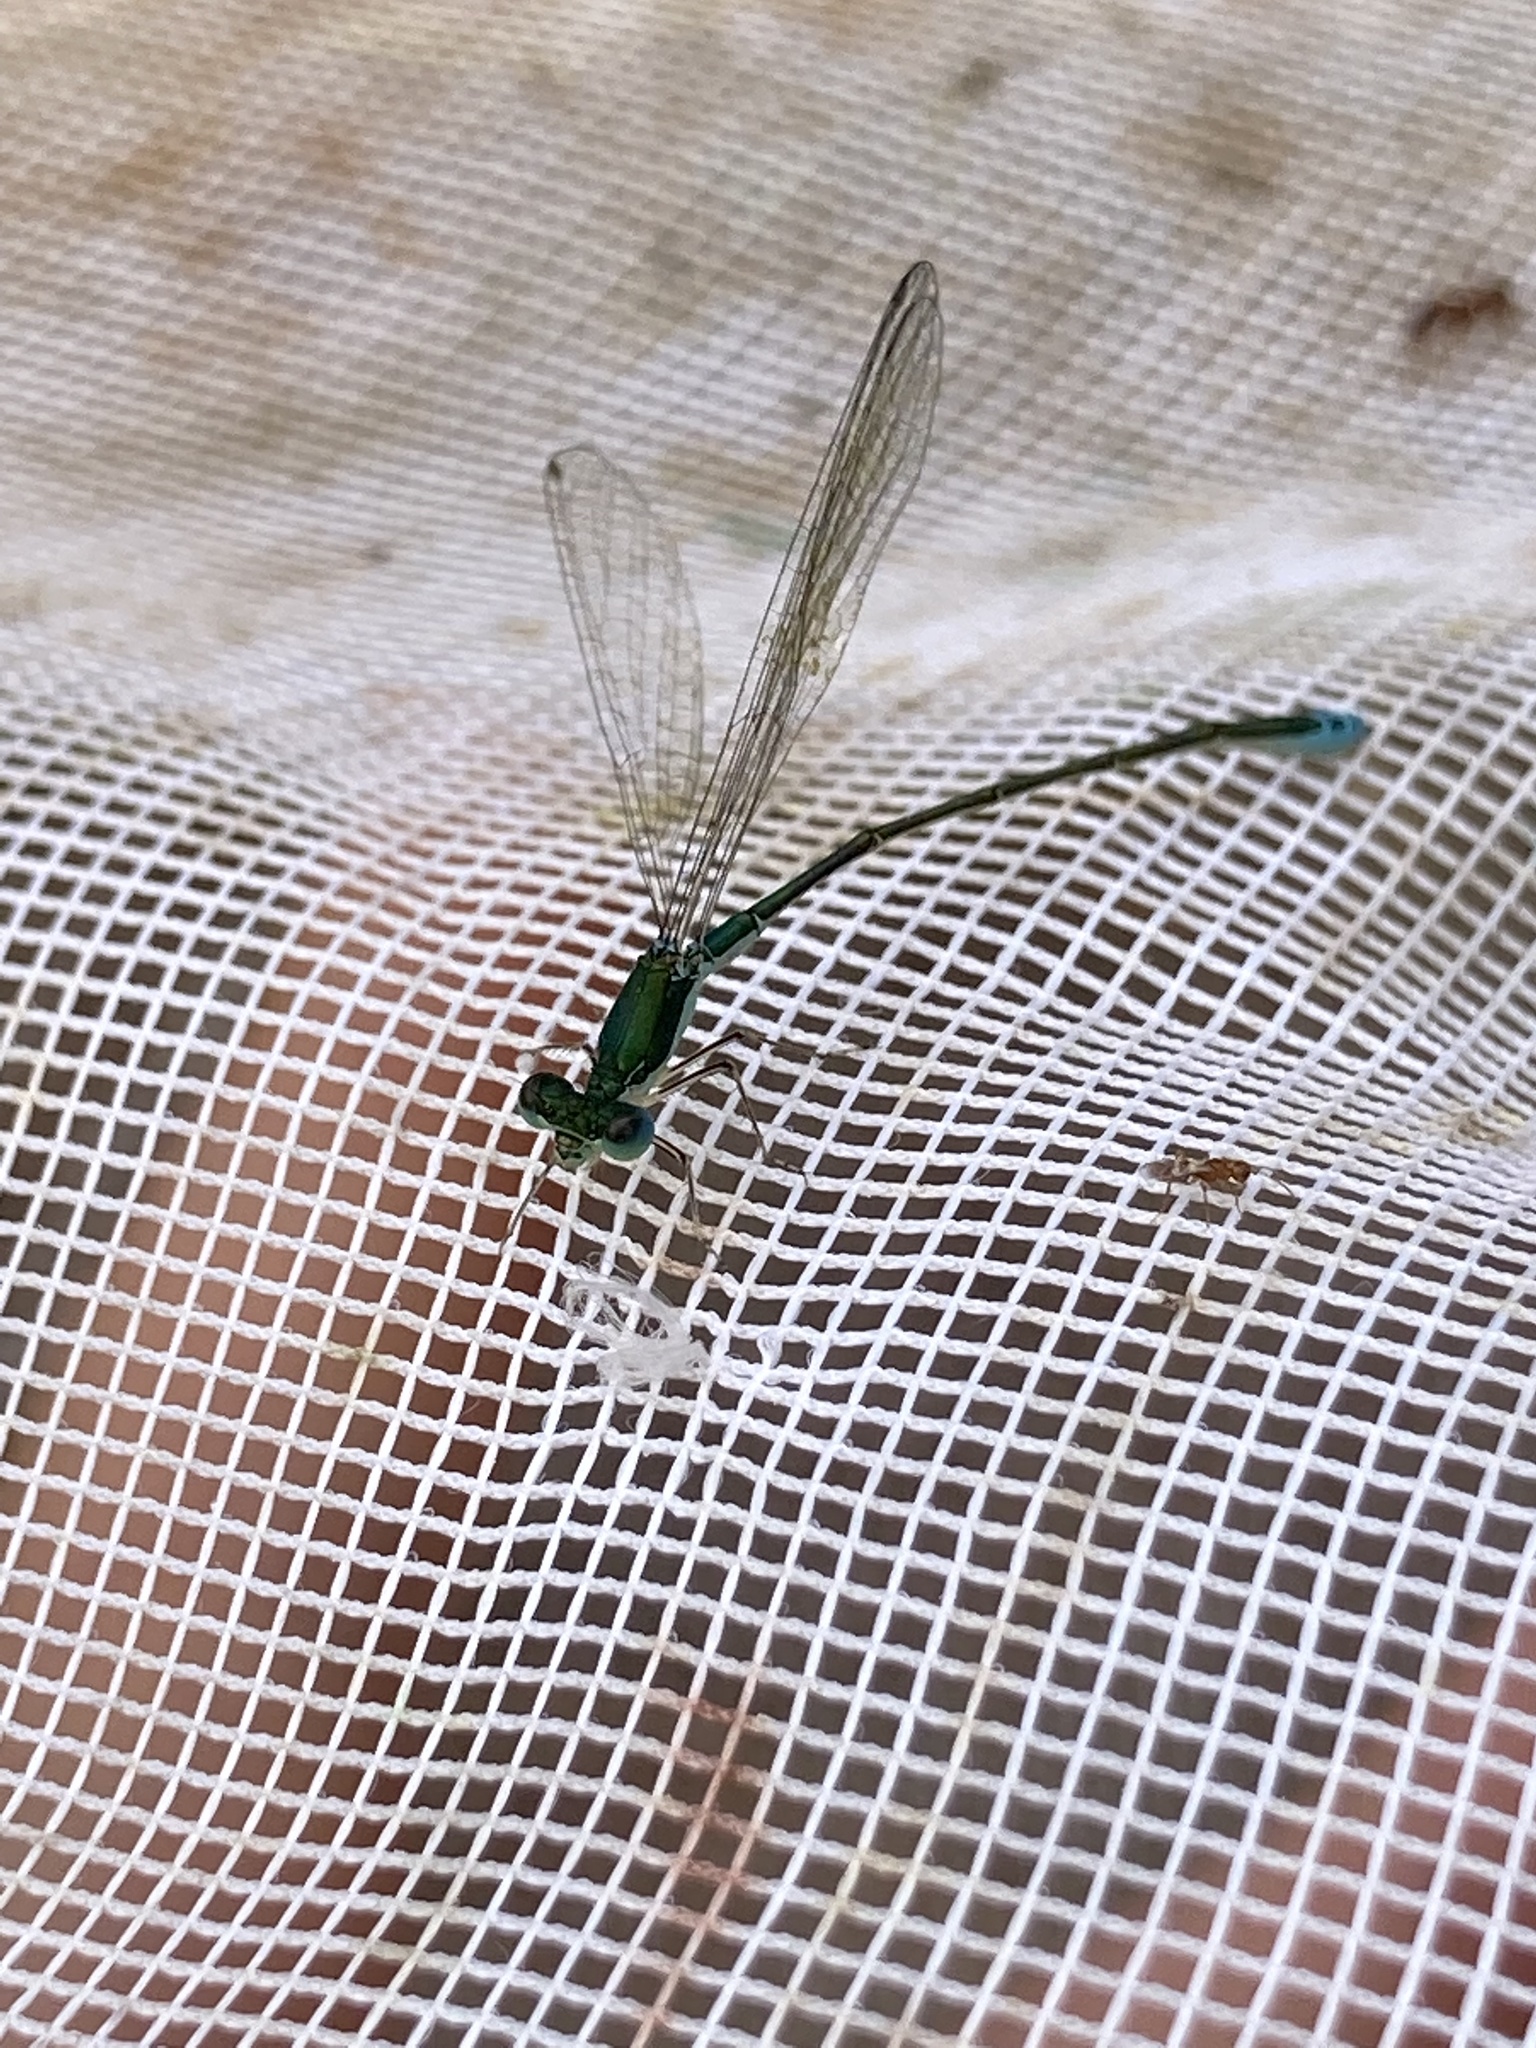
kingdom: Animalia
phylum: Arthropoda
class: Insecta
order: Odonata
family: Coenagrionidae
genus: Nehalennia
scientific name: Nehalennia irene
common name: Sedge sprite
